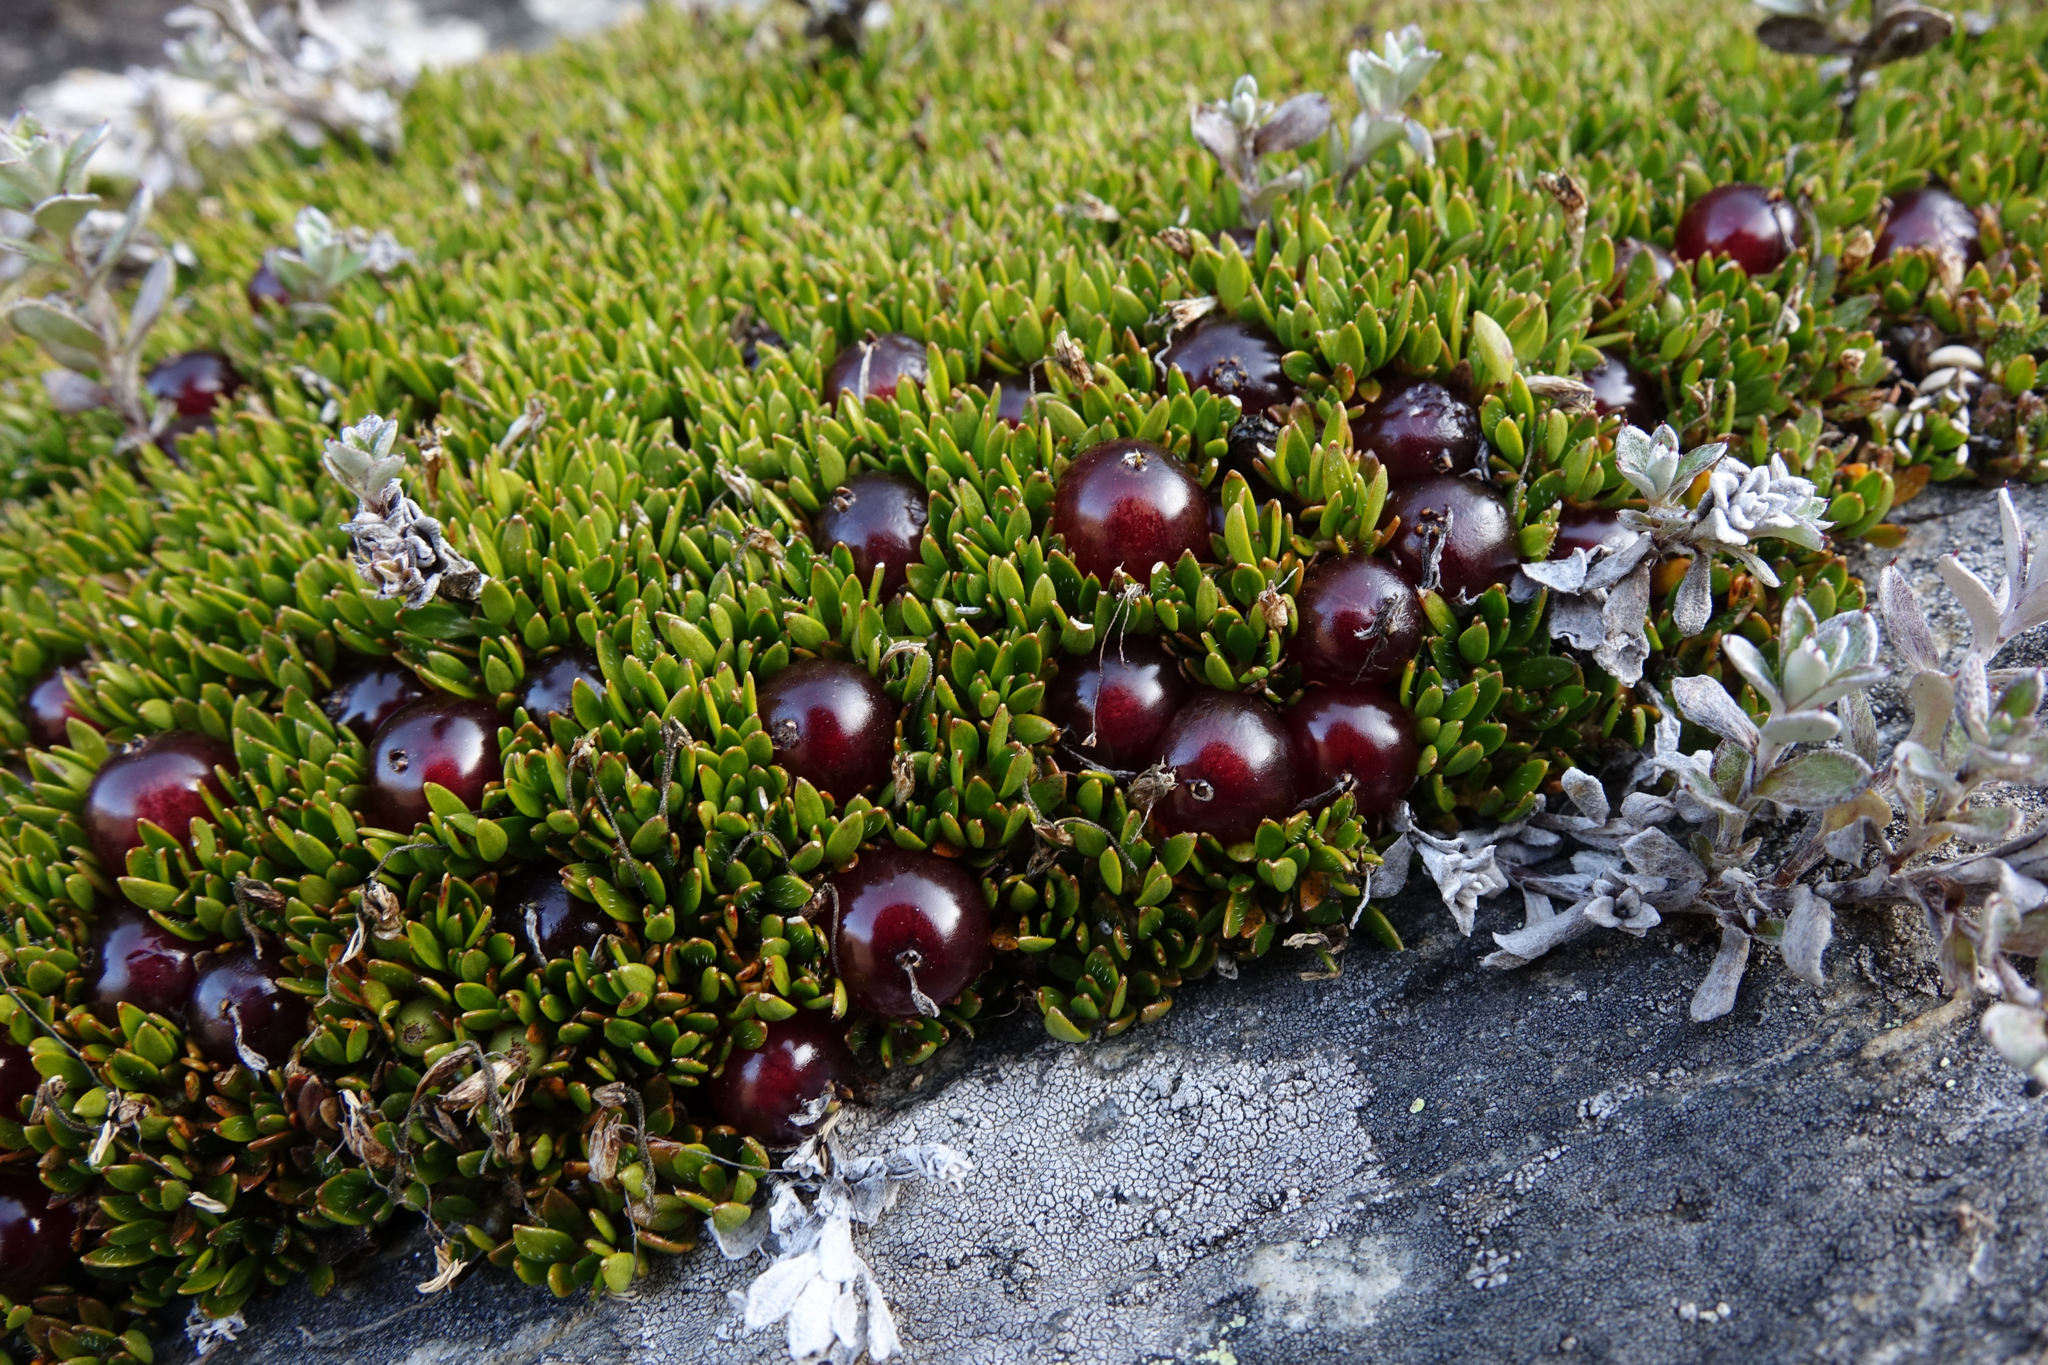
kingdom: Plantae
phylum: Tracheophyta
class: Magnoliopsida
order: Gentianales
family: Rubiaceae
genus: Coprosma
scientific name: Coprosma atropurpurea
